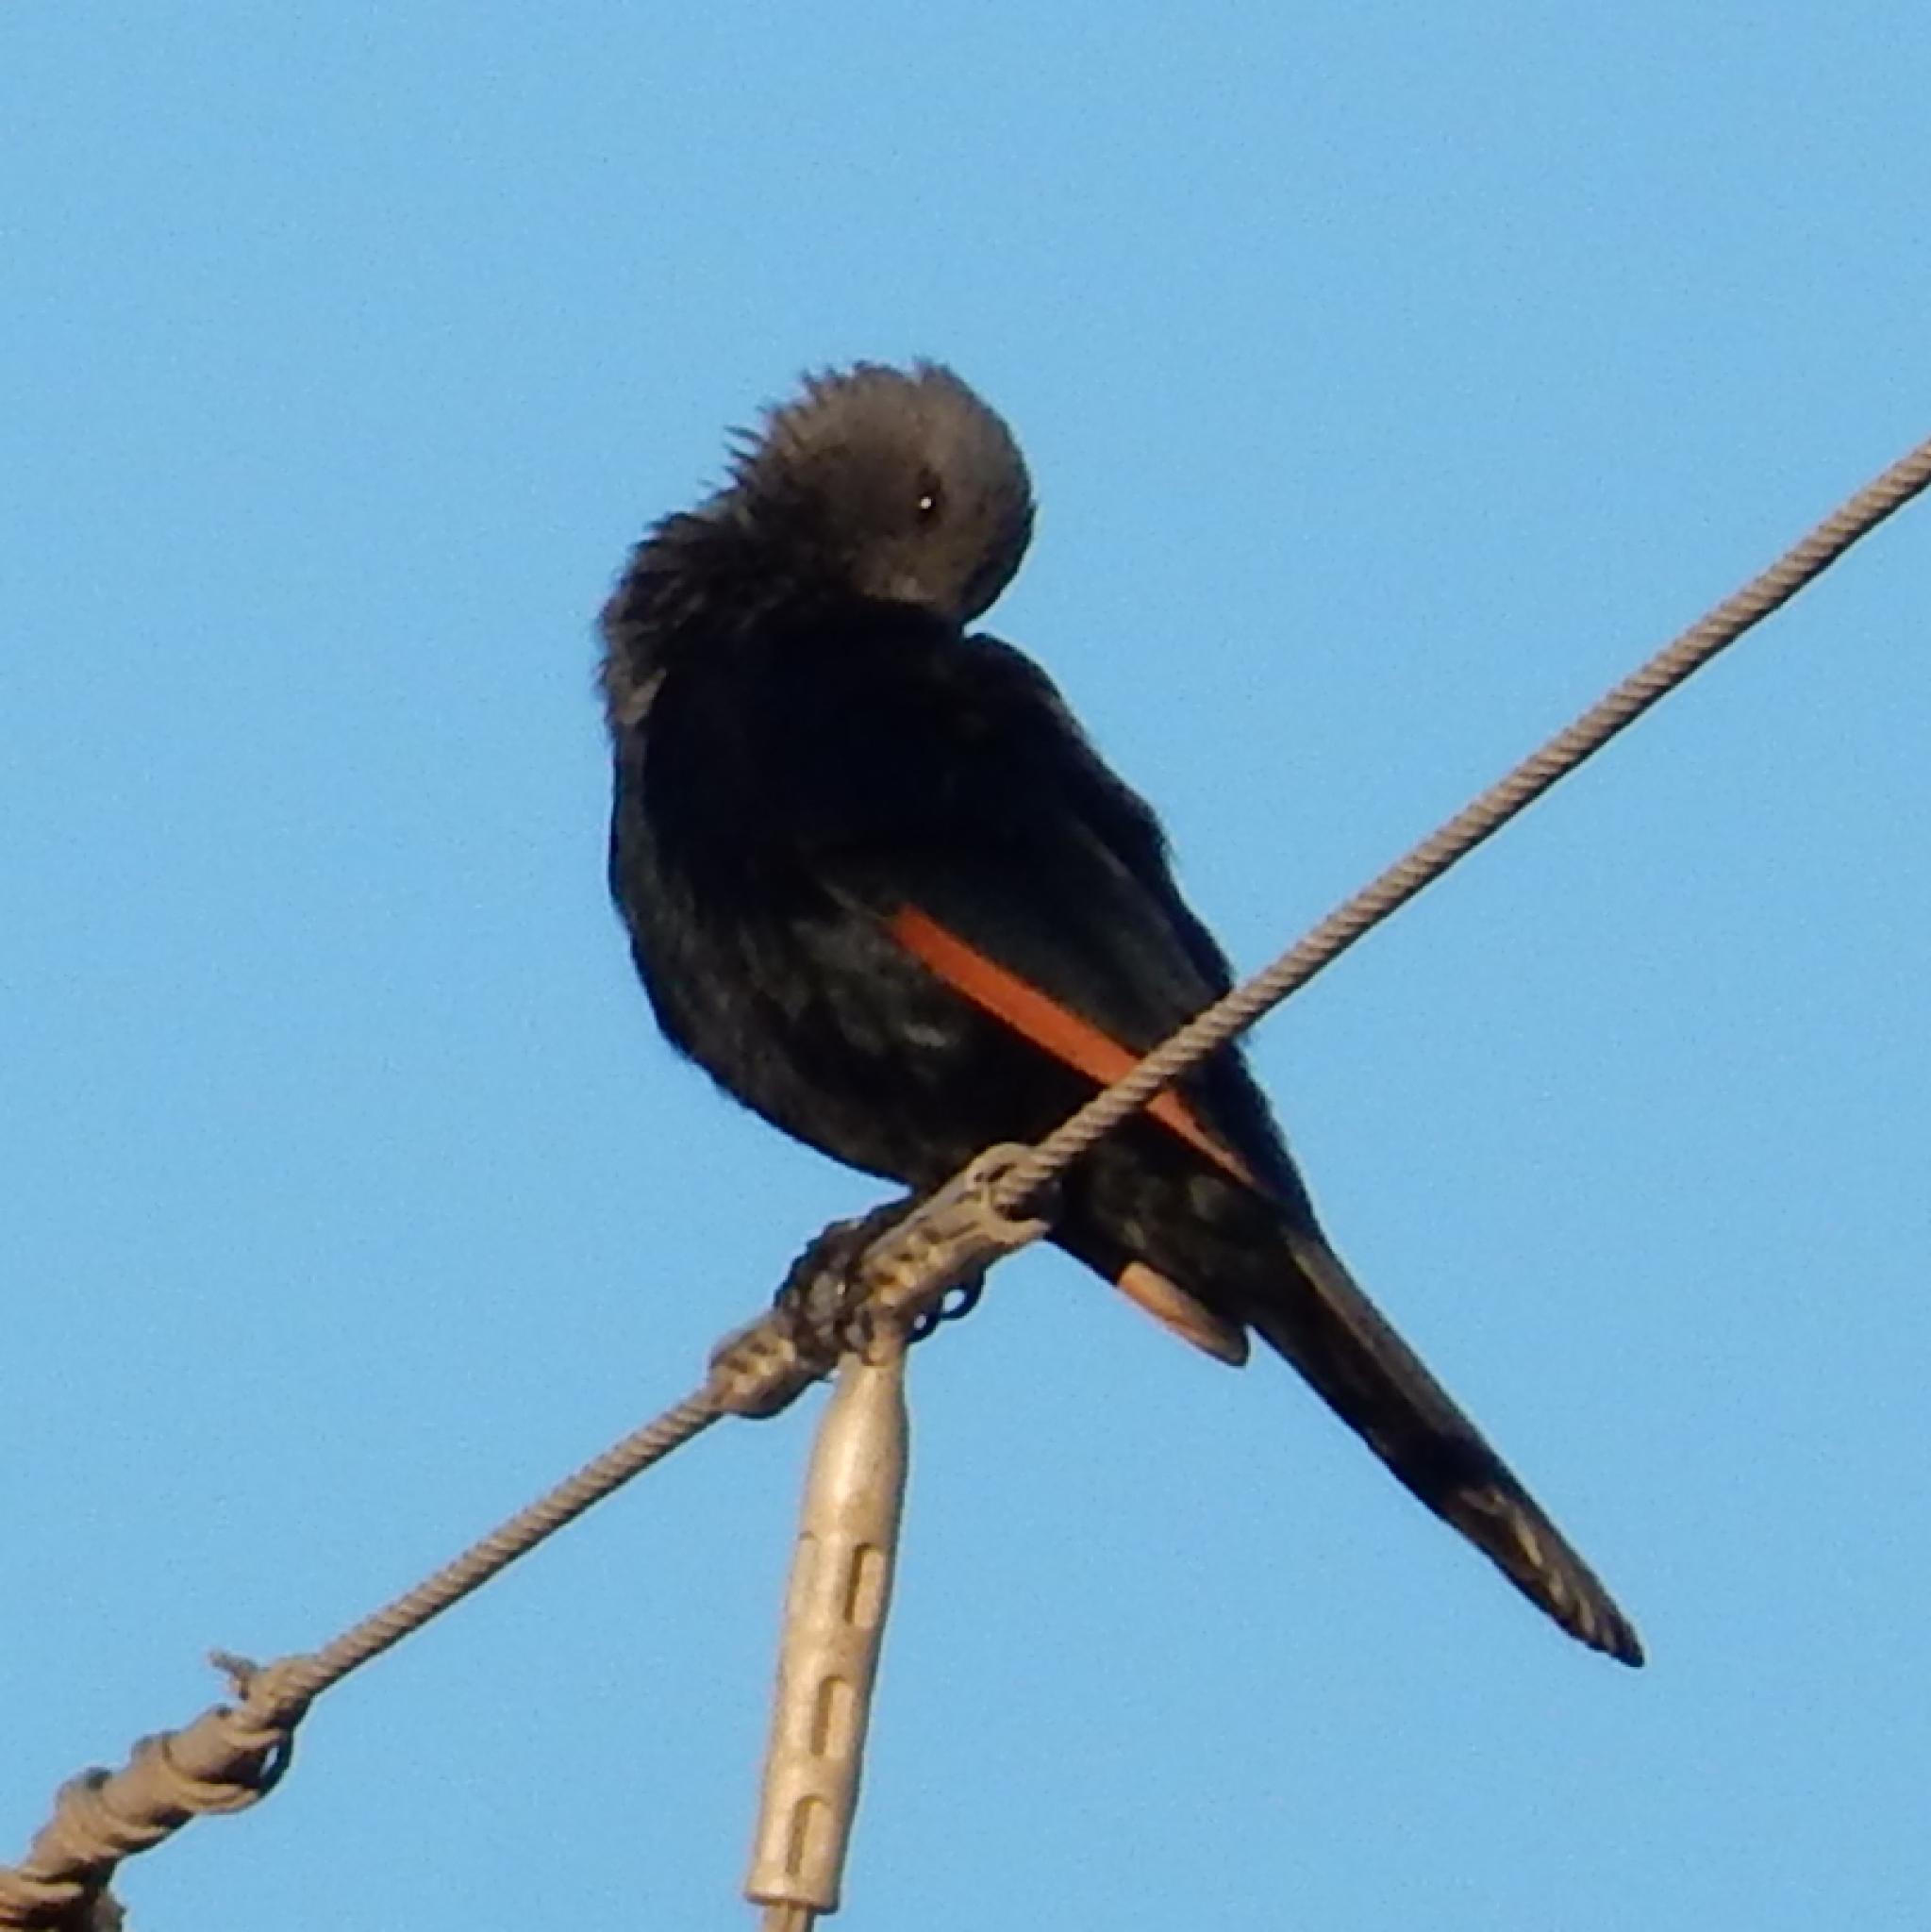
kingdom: Animalia
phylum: Chordata
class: Aves
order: Passeriformes
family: Sturnidae
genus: Onychognathus
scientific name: Onychognathus morio
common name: Red-winged starling
